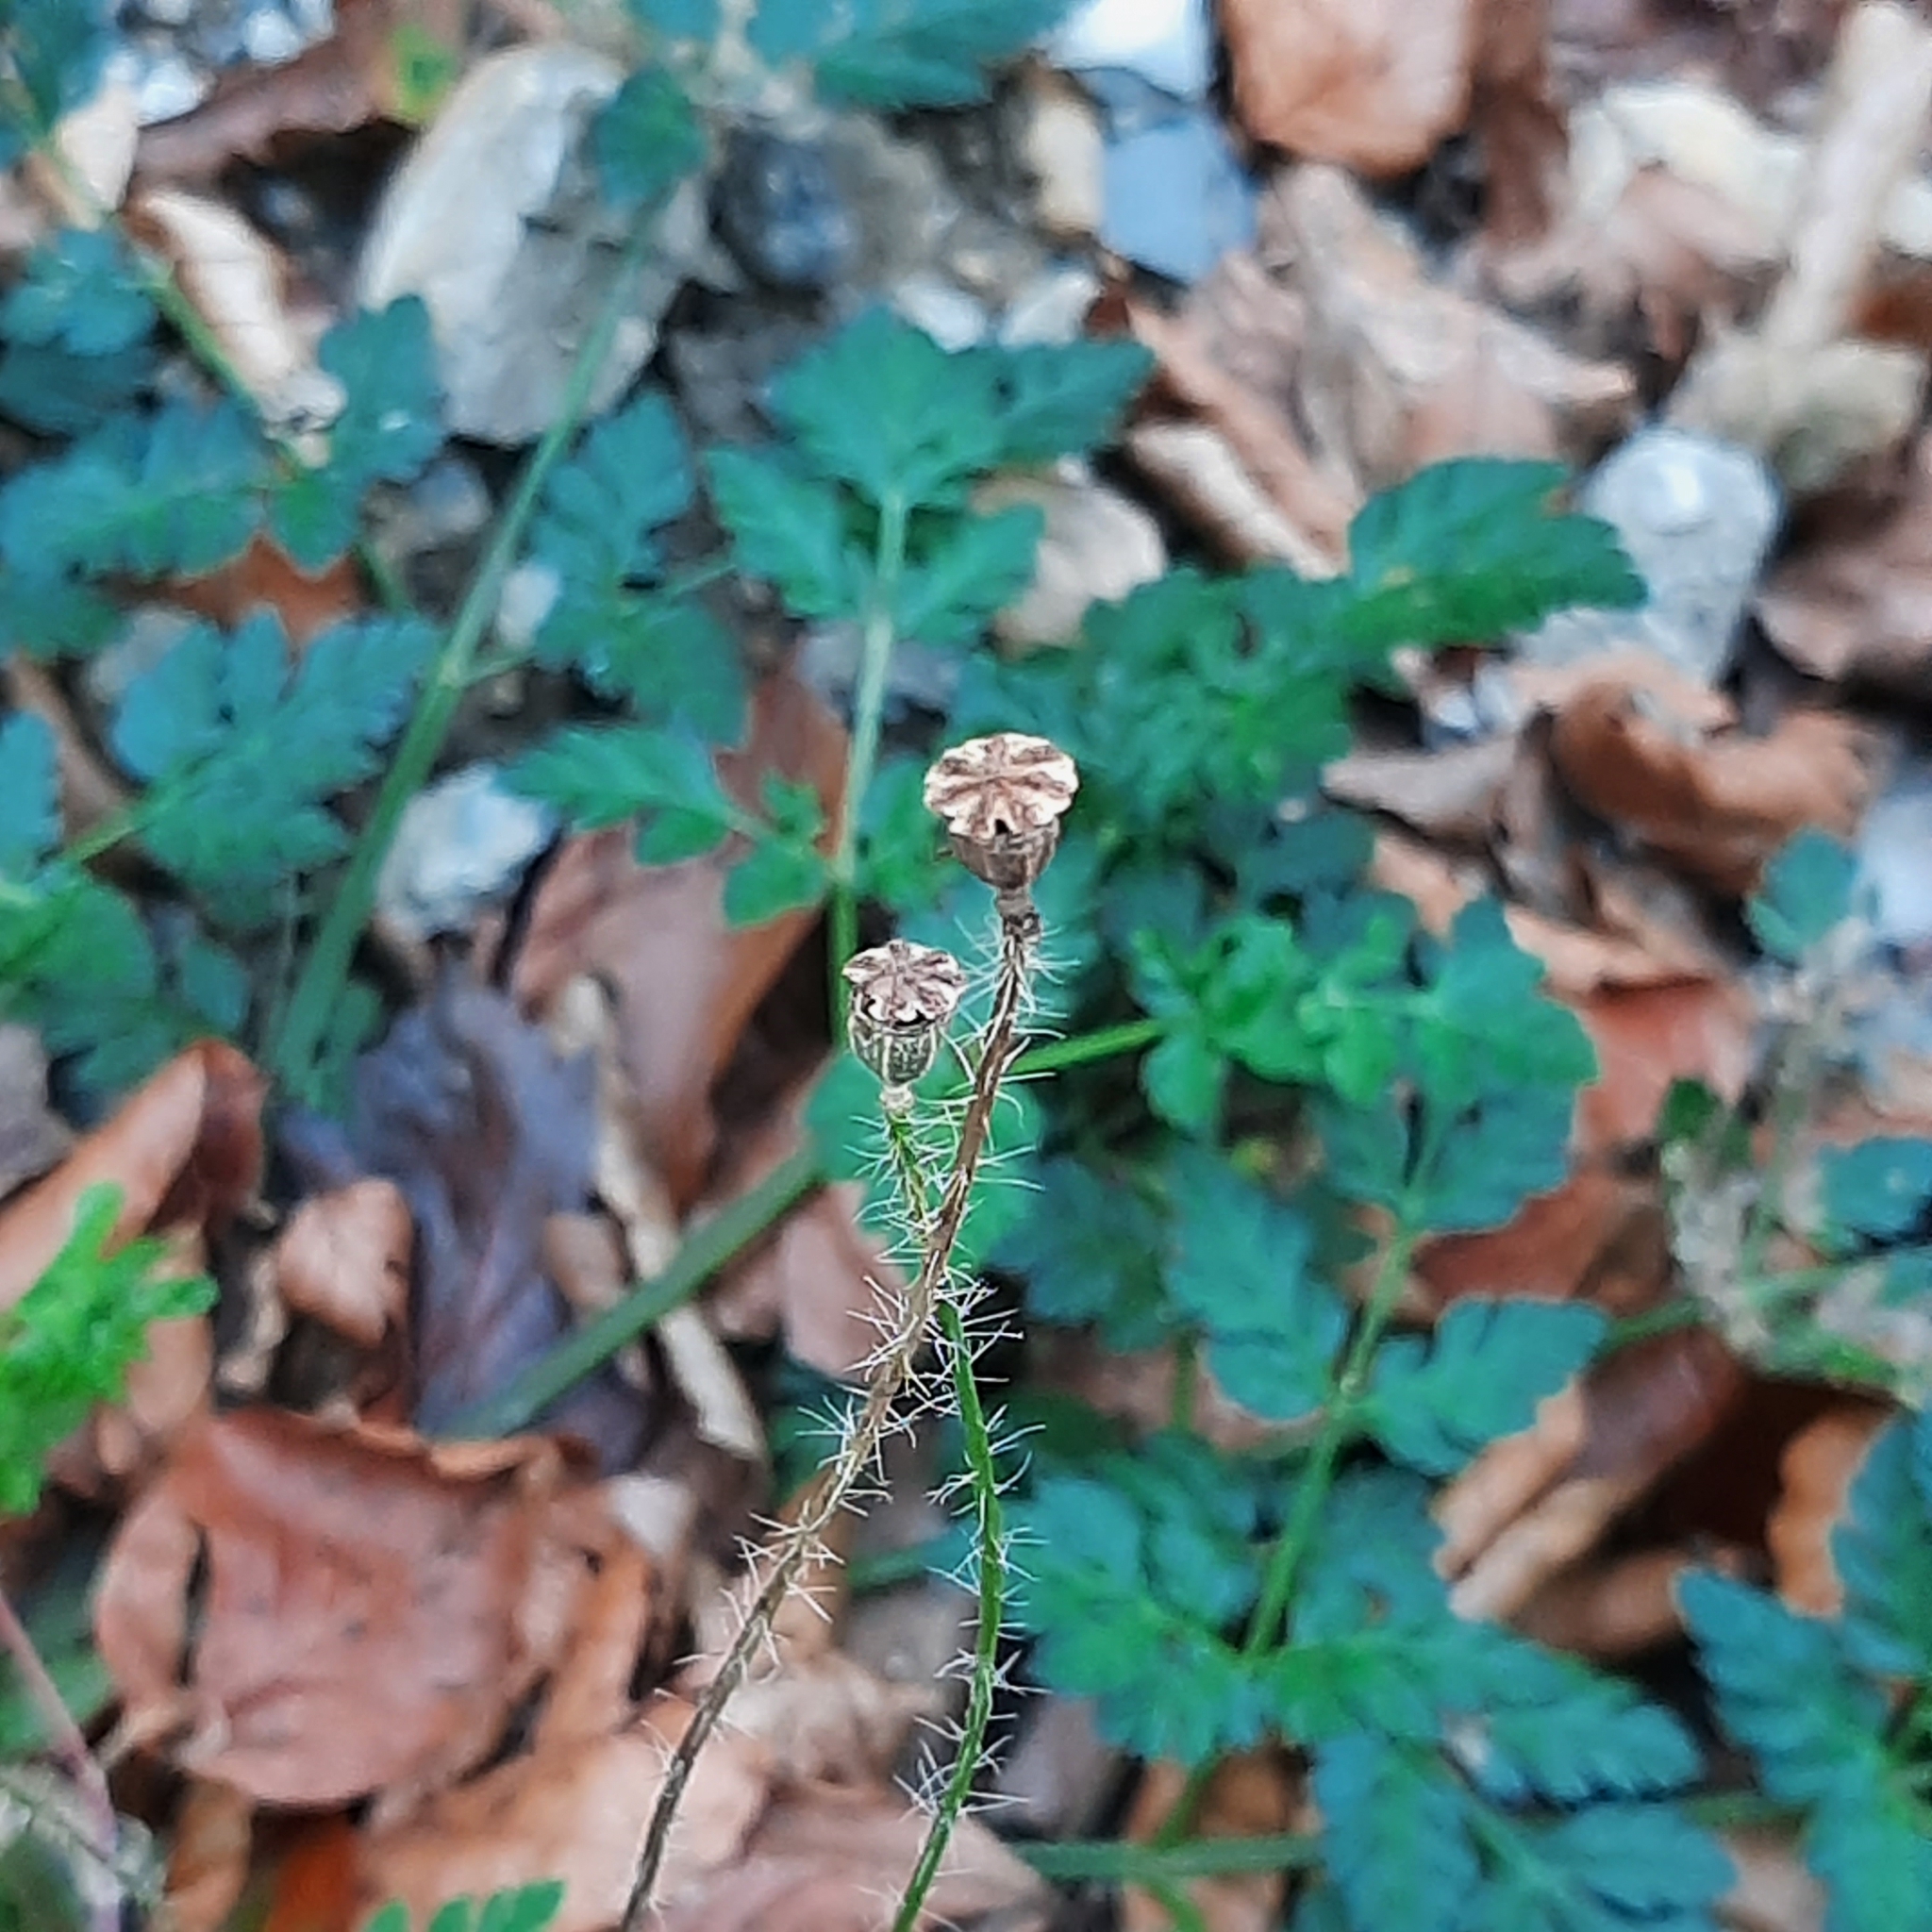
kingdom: Plantae
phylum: Tracheophyta
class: Magnoliopsida
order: Ranunculales
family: Papaveraceae
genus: Papaver
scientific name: Papaver rhoeas
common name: Corn poppy
